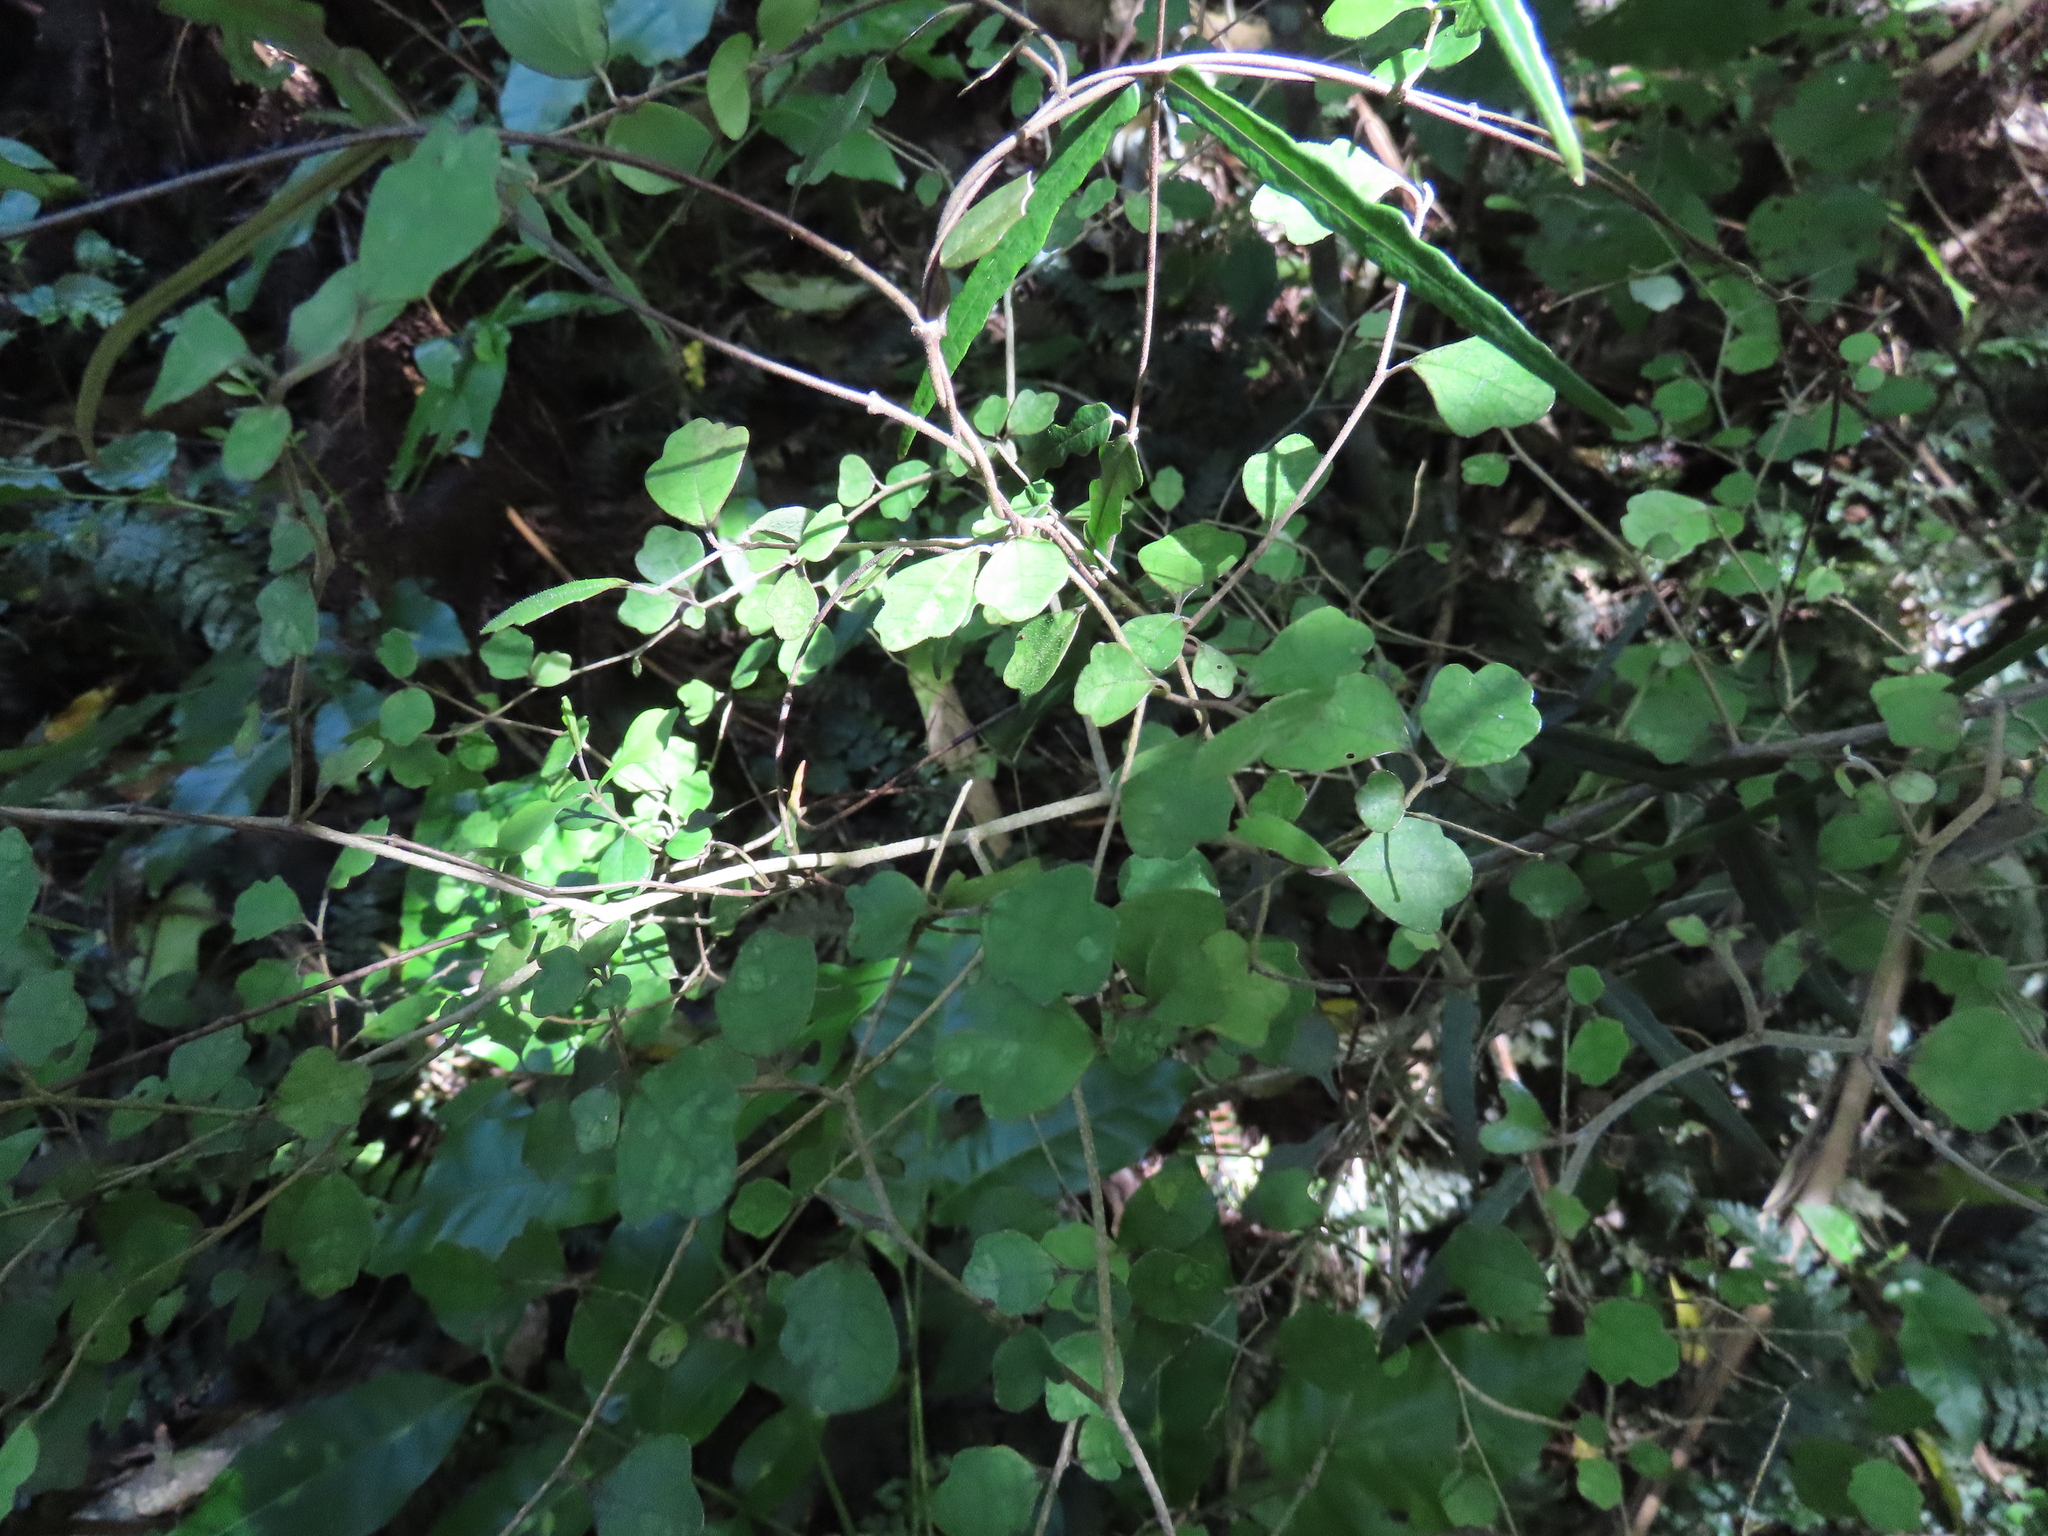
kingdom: Plantae
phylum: Tracheophyta
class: Magnoliopsida
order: Apiales
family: Pennantiaceae
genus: Pennantia
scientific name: Pennantia corymbosa
